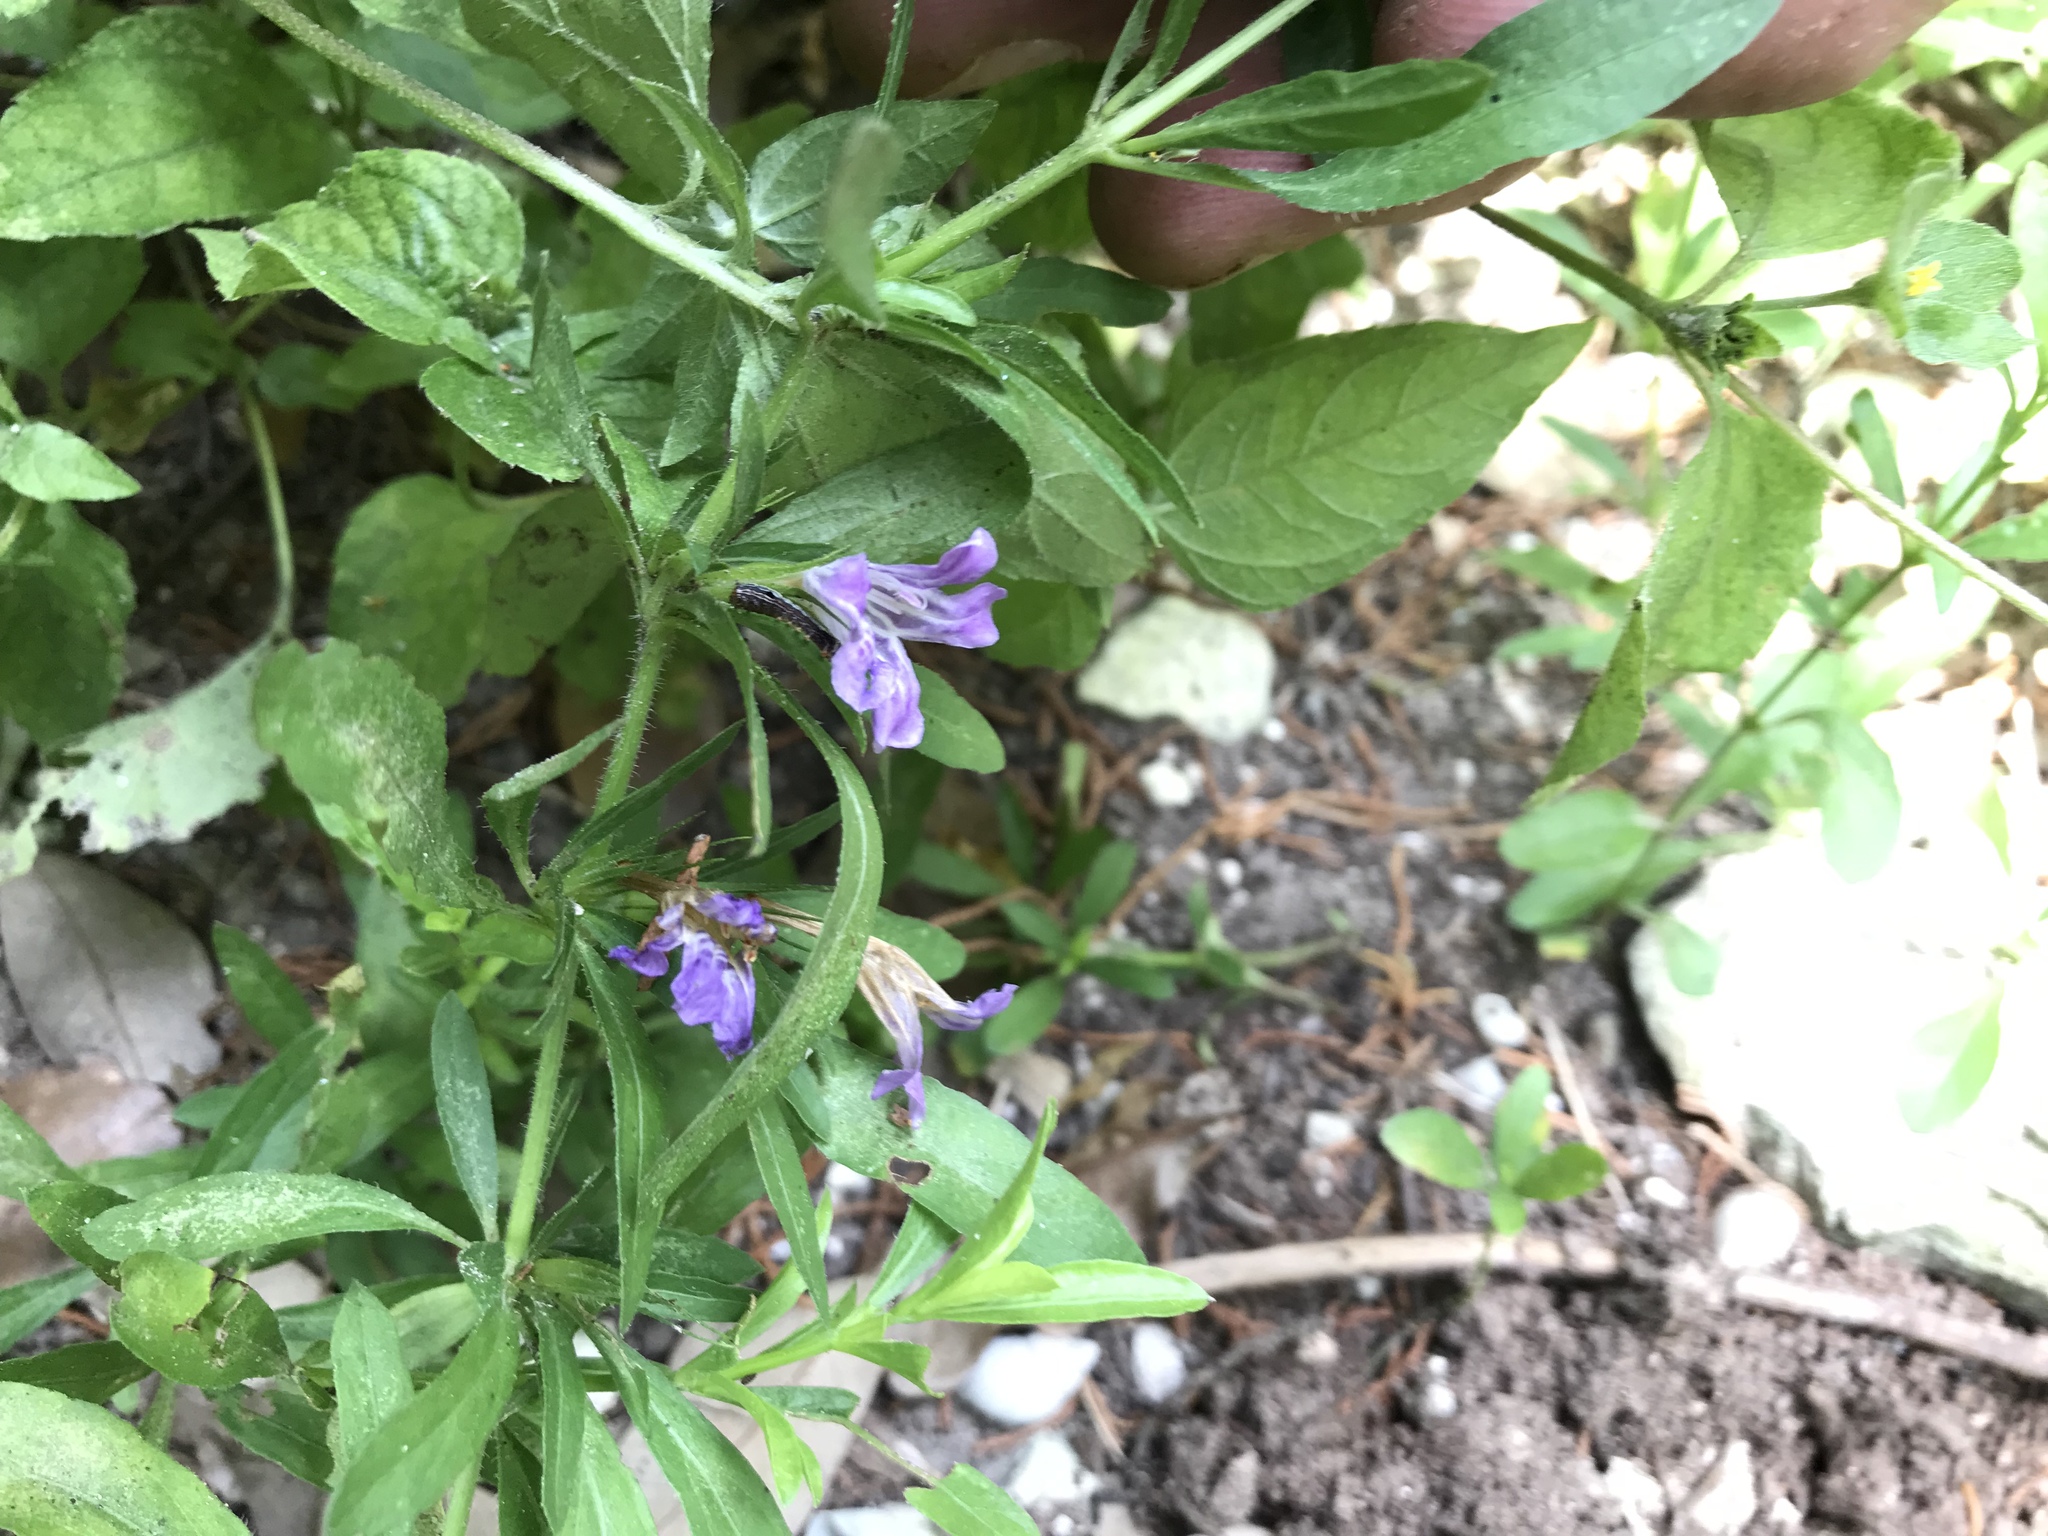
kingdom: Plantae
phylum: Tracheophyta
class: Magnoliopsida
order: Lamiales
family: Acanthaceae
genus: Dyschoriste
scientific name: Dyschoriste linearis
